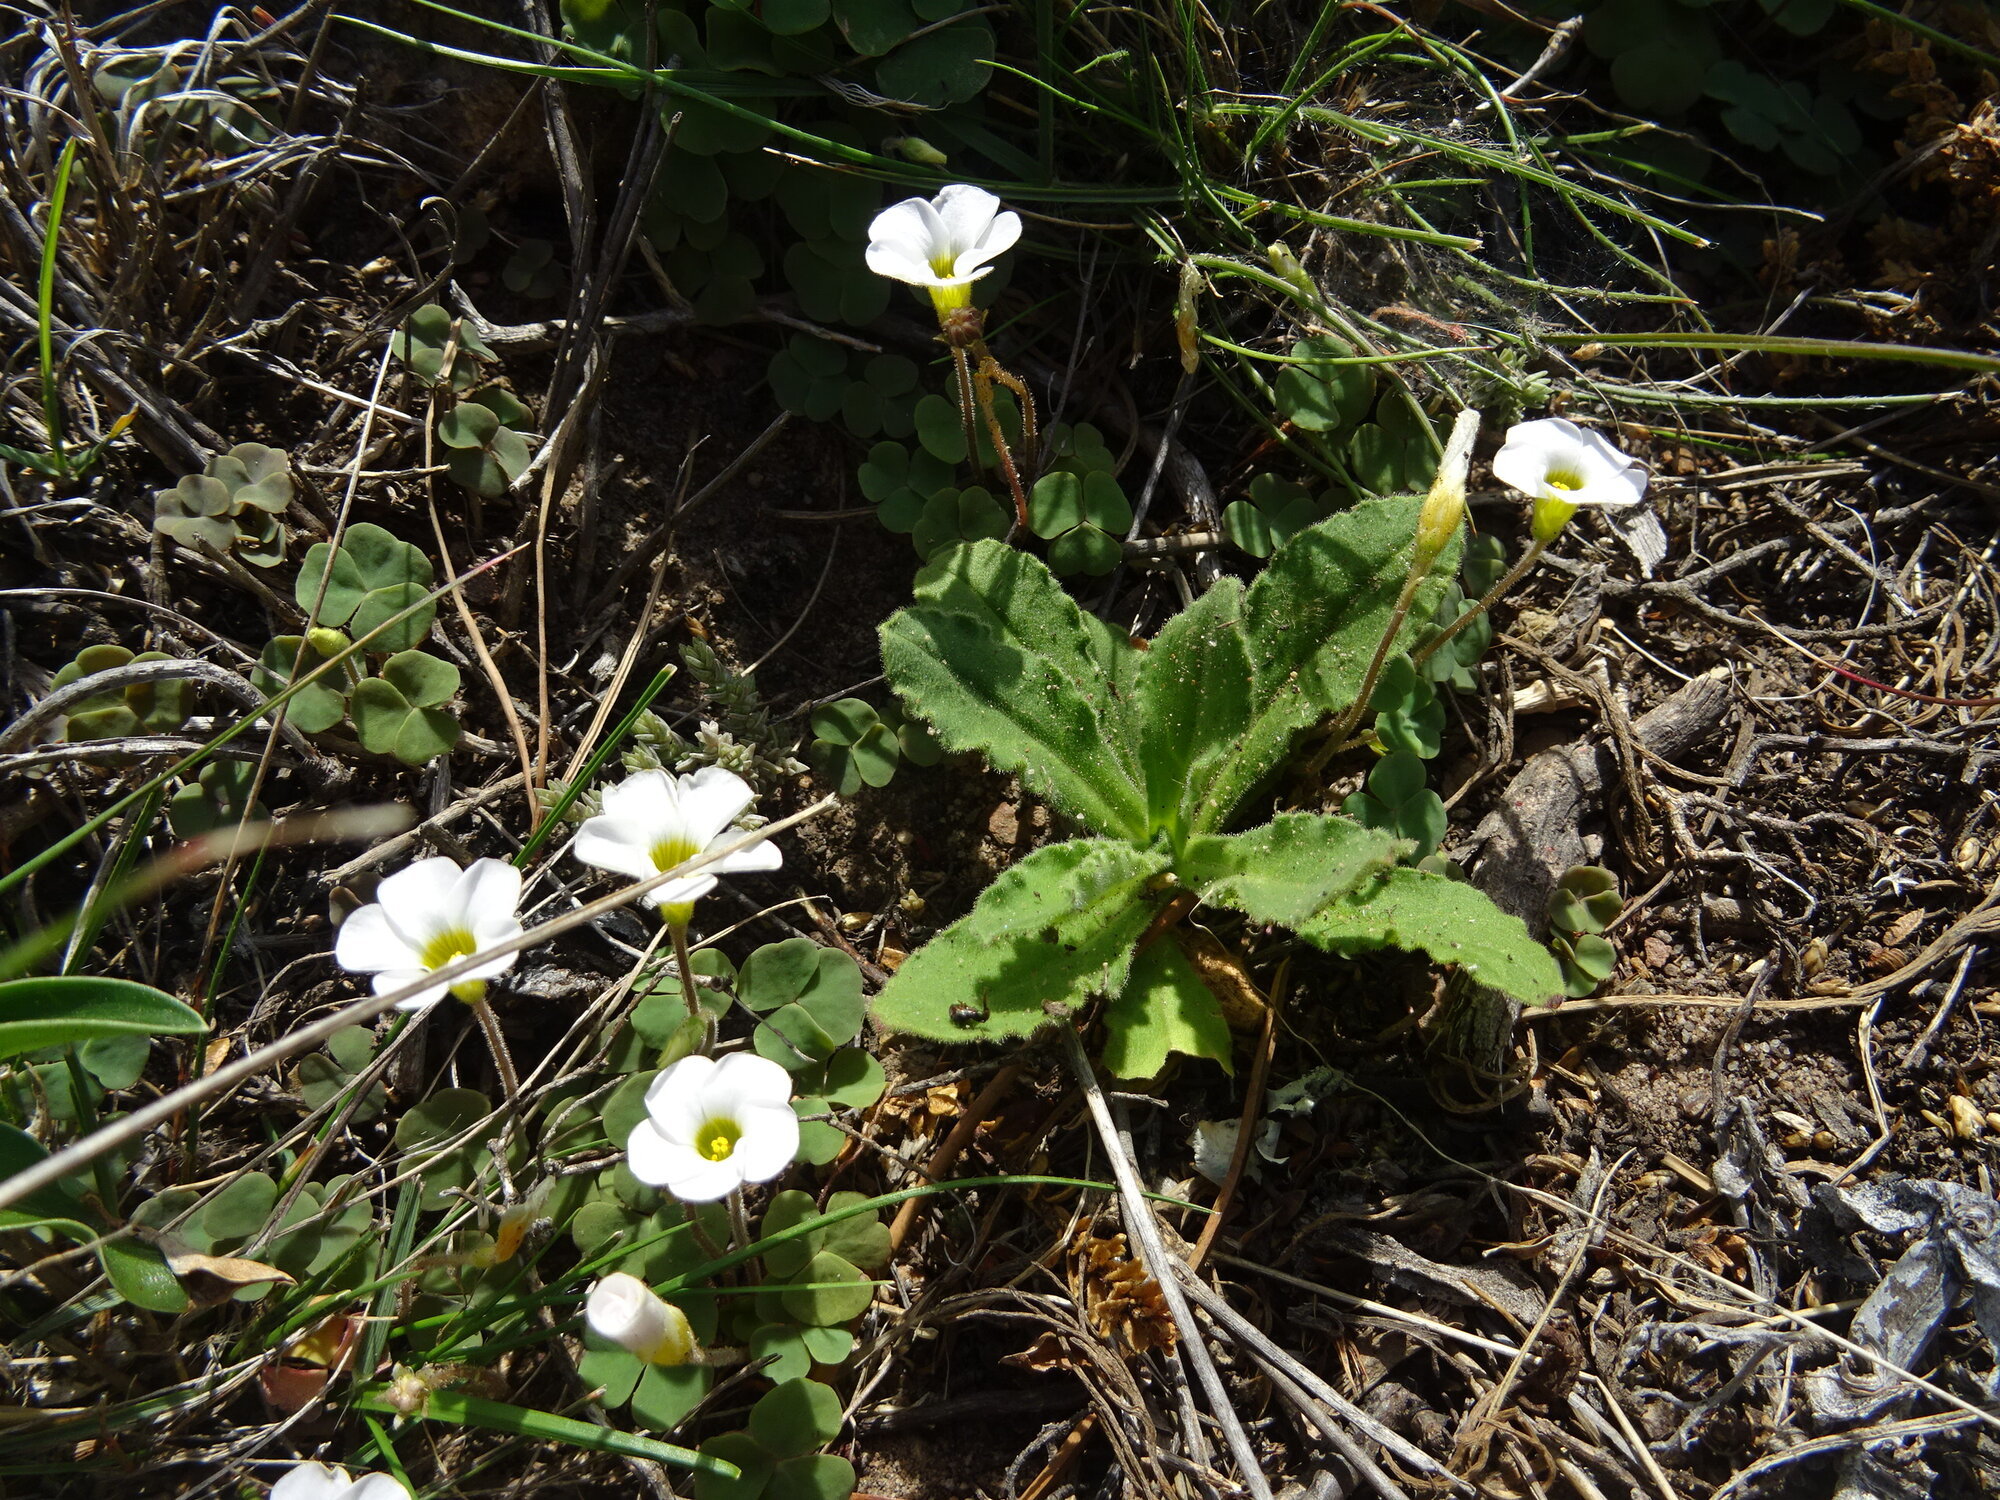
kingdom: Plantae
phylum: Tracheophyta
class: Magnoliopsida
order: Oxalidales
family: Oxalidaceae
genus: Oxalis
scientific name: Oxalis punctata
